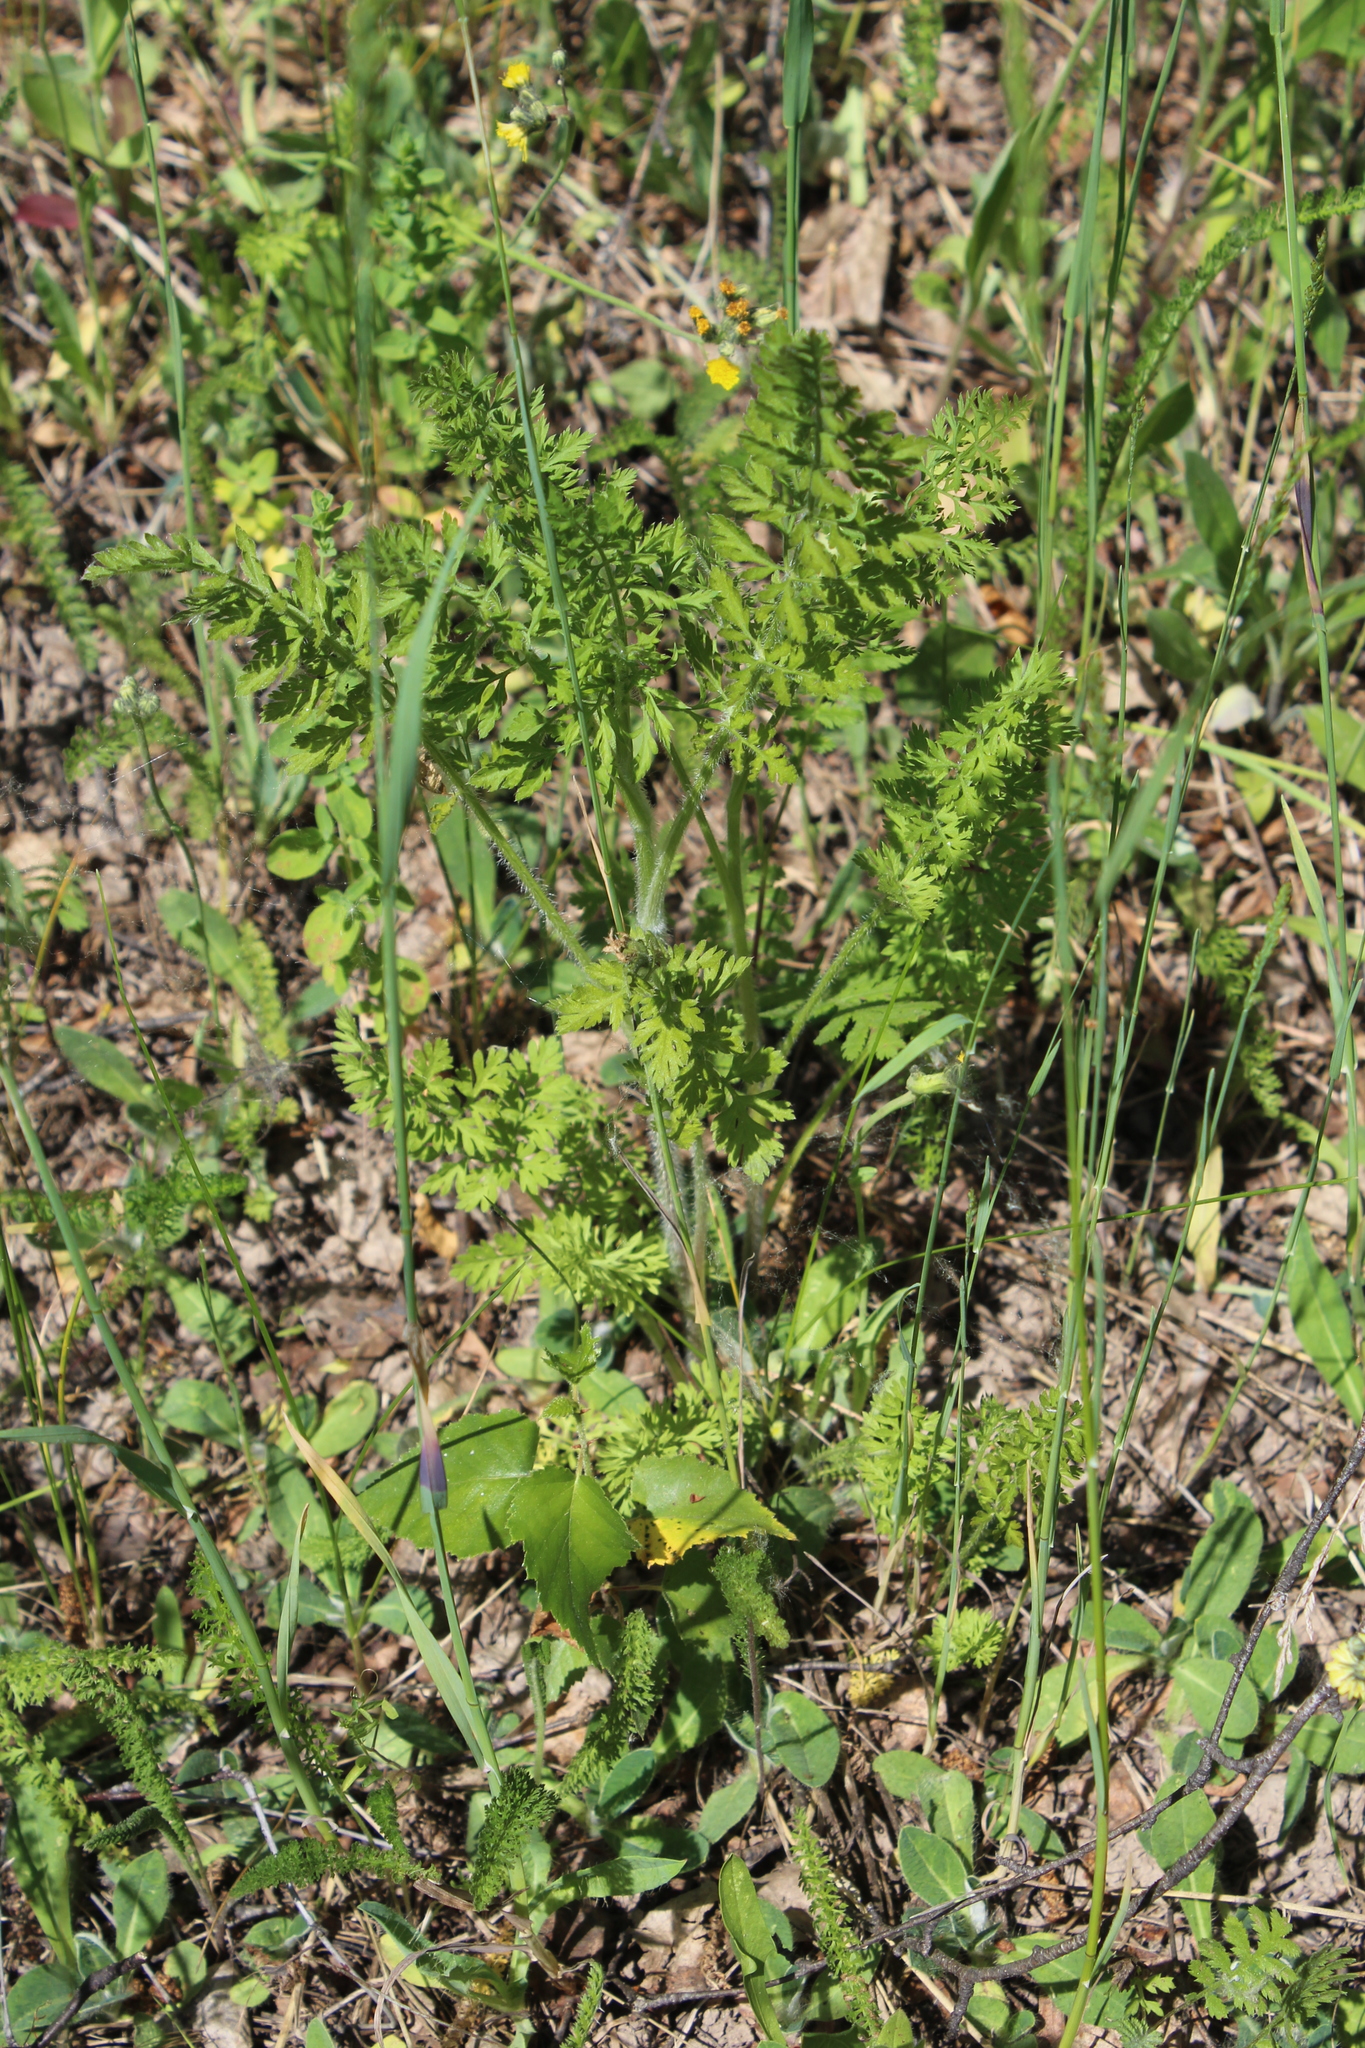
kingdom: Plantae
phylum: Tracheophyta
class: Magnoliopsida
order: Apiales
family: Apiaceae
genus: Daucus
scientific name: Daucus carota
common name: Wild carrot
